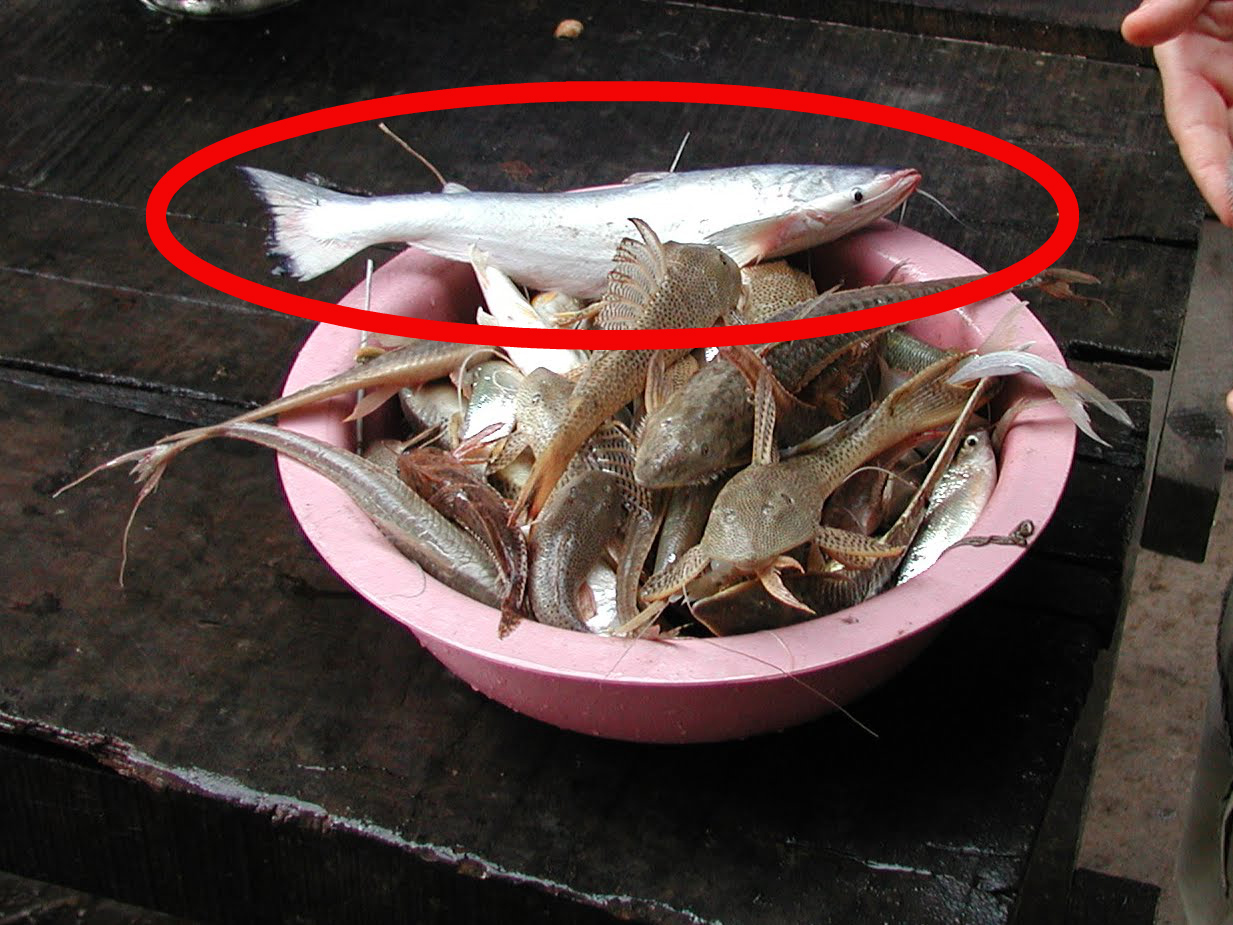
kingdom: Animalia
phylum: Chordata
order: Siluriformes
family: Pimelodidae
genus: Hypophthalmus
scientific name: Hypophthalmus edentatus
